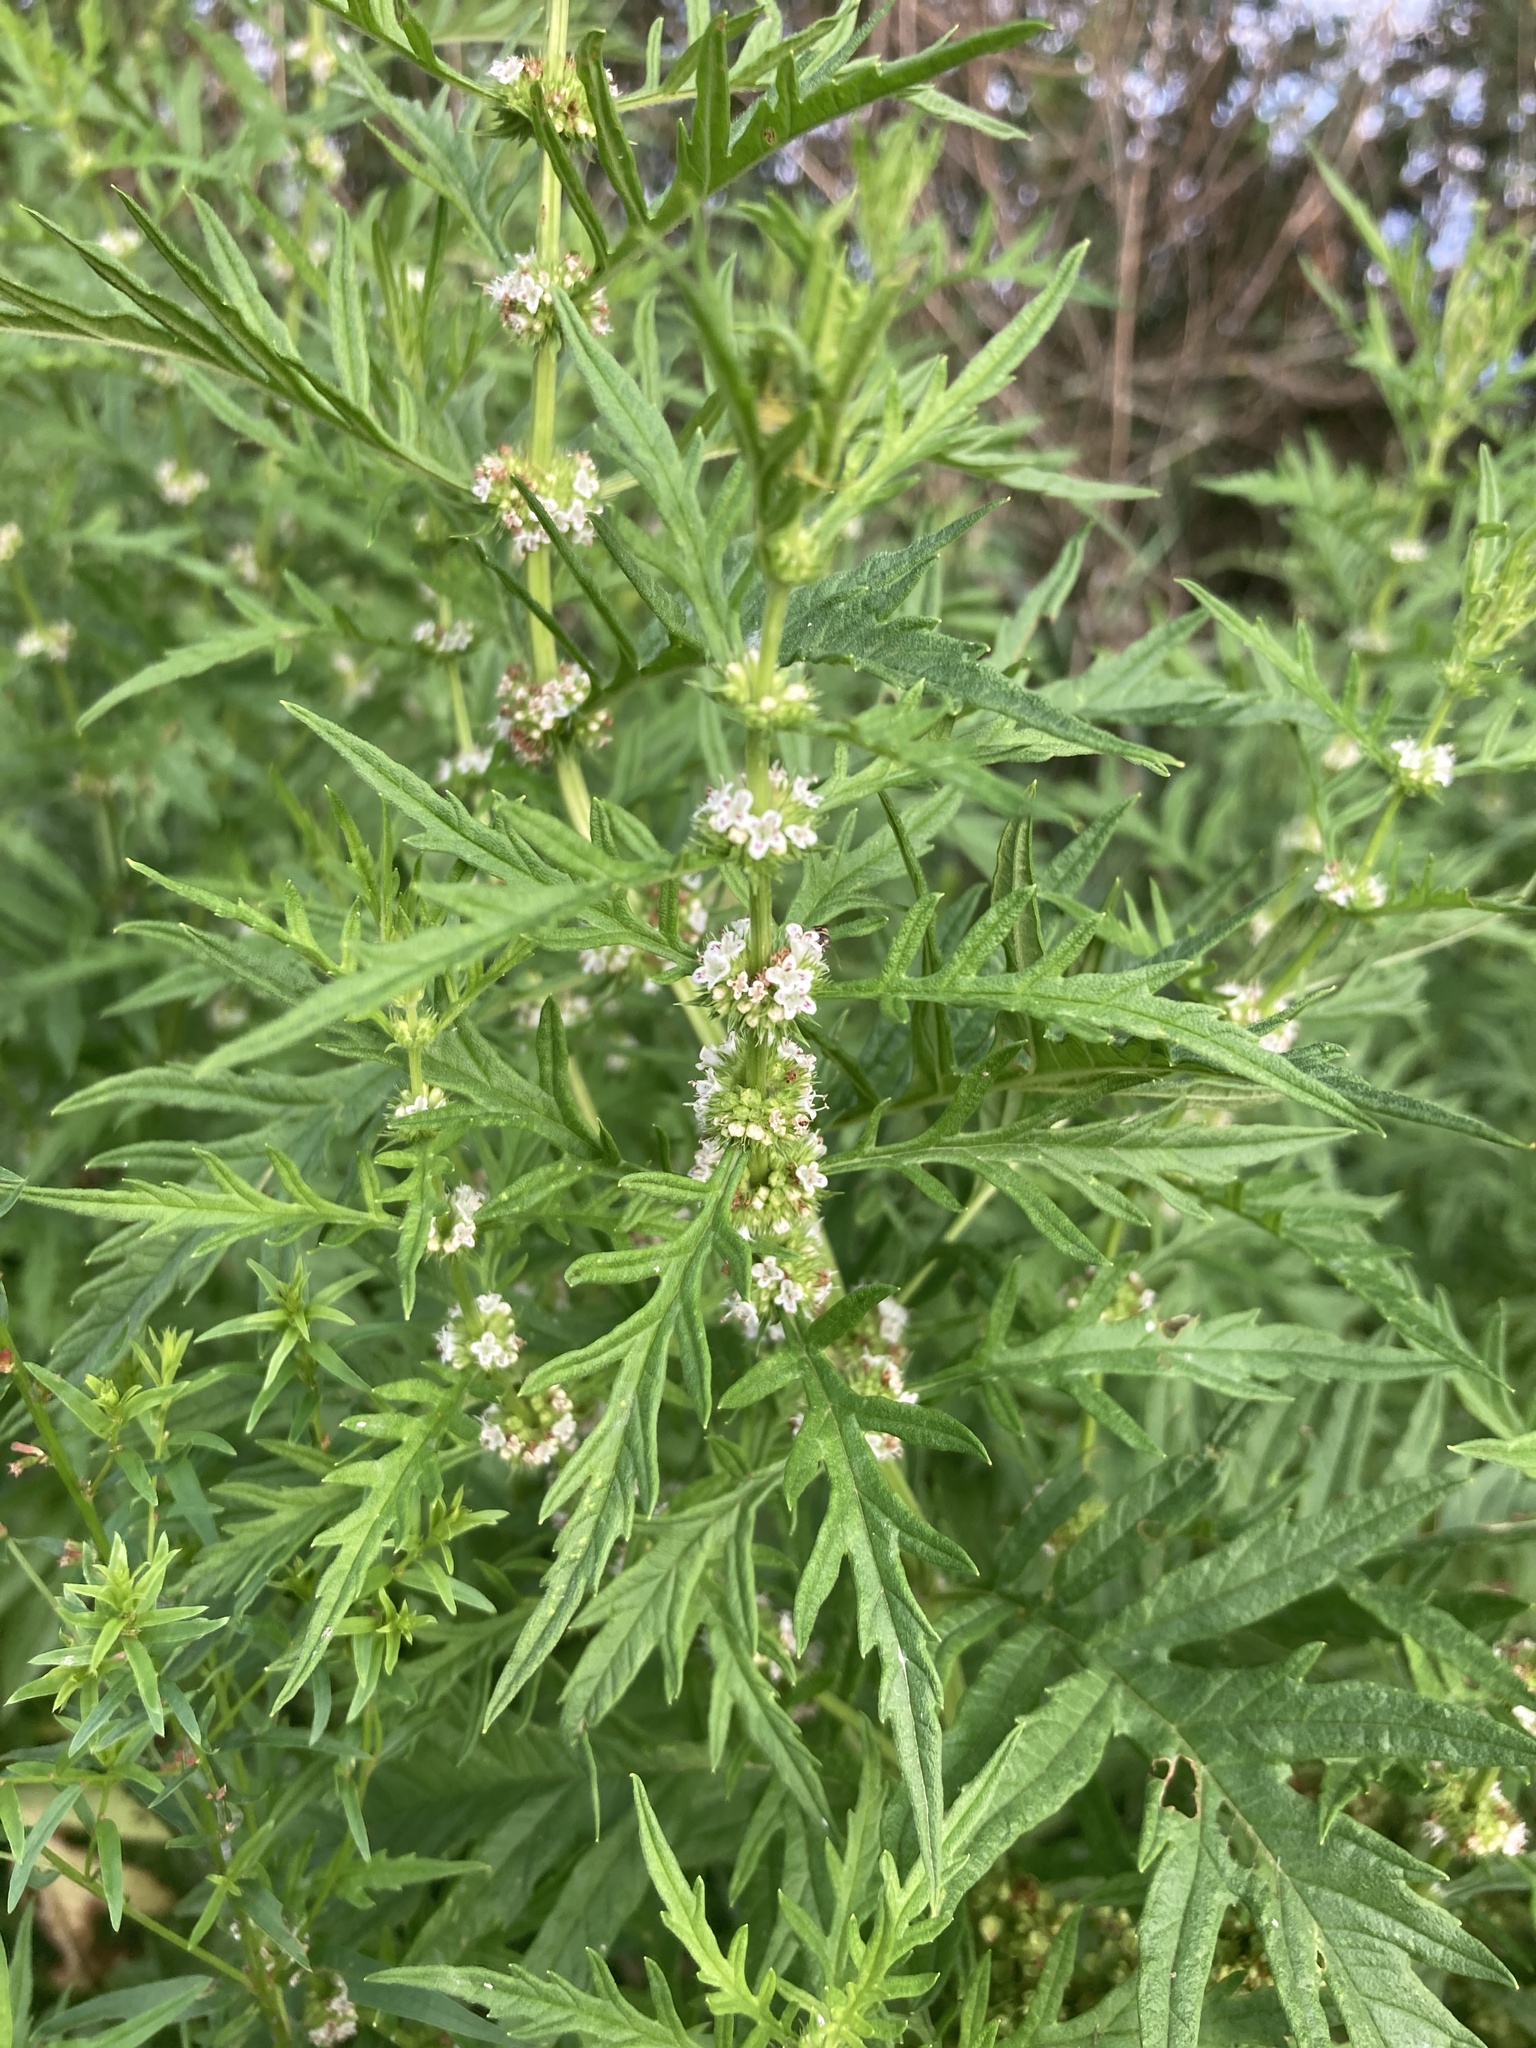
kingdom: Plantae
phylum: Tracheophyta
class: Magnoliopsida
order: Lamiales
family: Lamiaceae
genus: Lycopus
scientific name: Lycopus exaltatus
